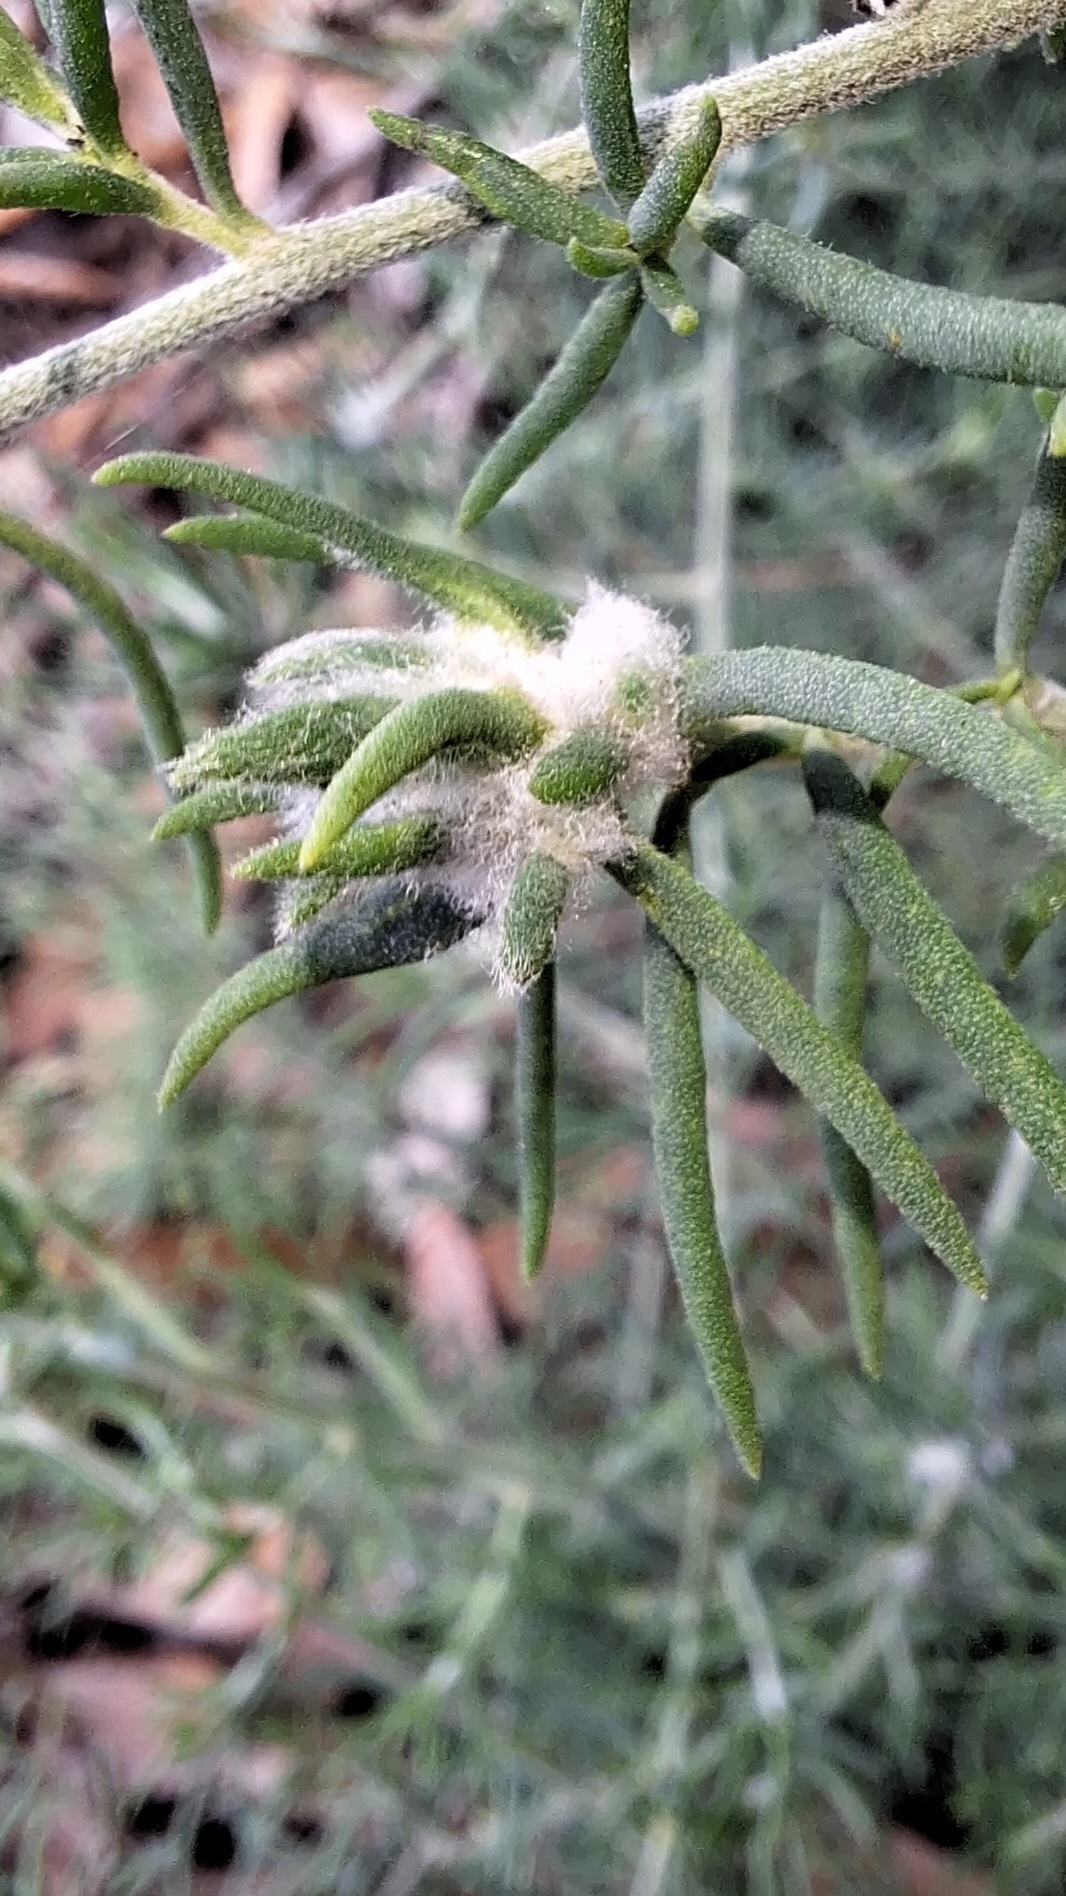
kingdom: Animalia
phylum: Arthropoda
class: Insecta
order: Diptera
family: Cecidomyiidae
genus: Asphondylia
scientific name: Asphondylia tonsura
